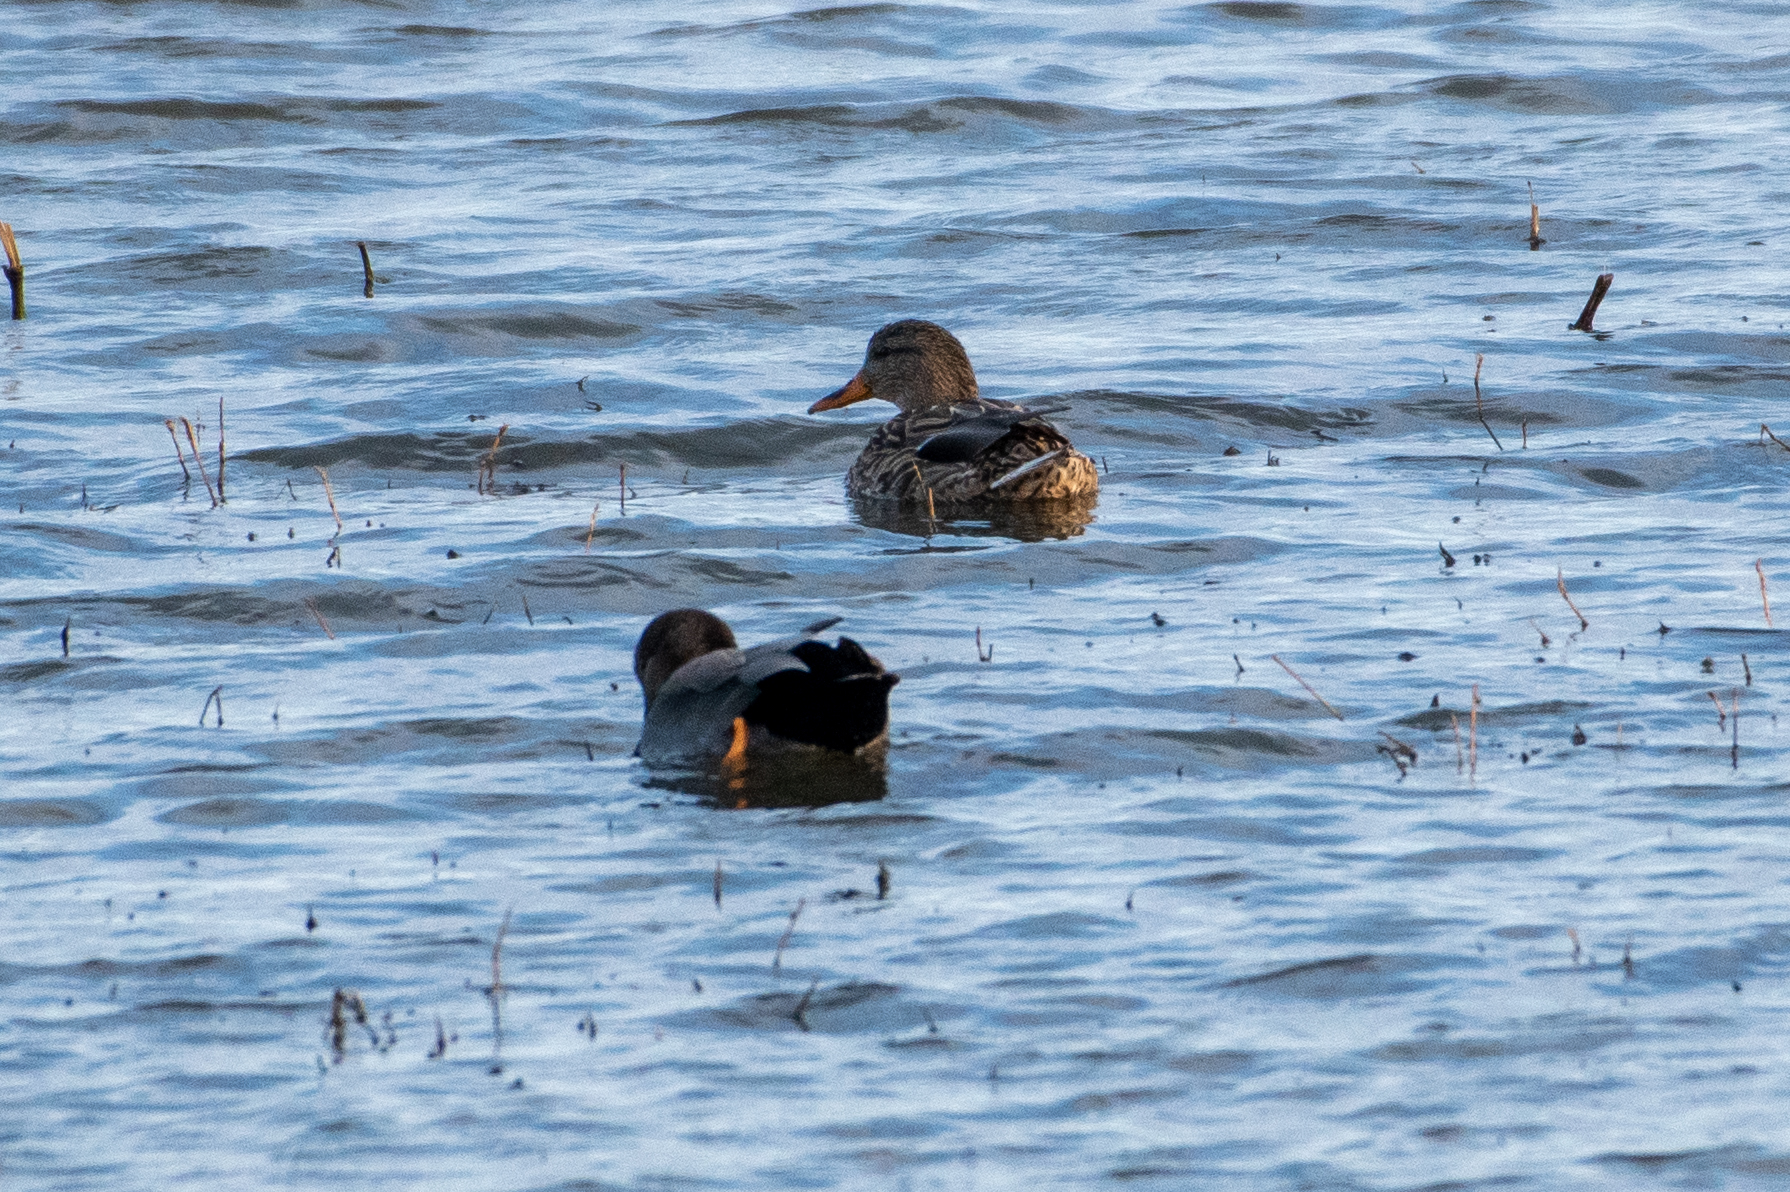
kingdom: Animalia
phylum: Chordata
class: Aves
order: Anseriformes
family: Anatidae
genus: Mareca
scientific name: Mareca strepera
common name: Gadwall
